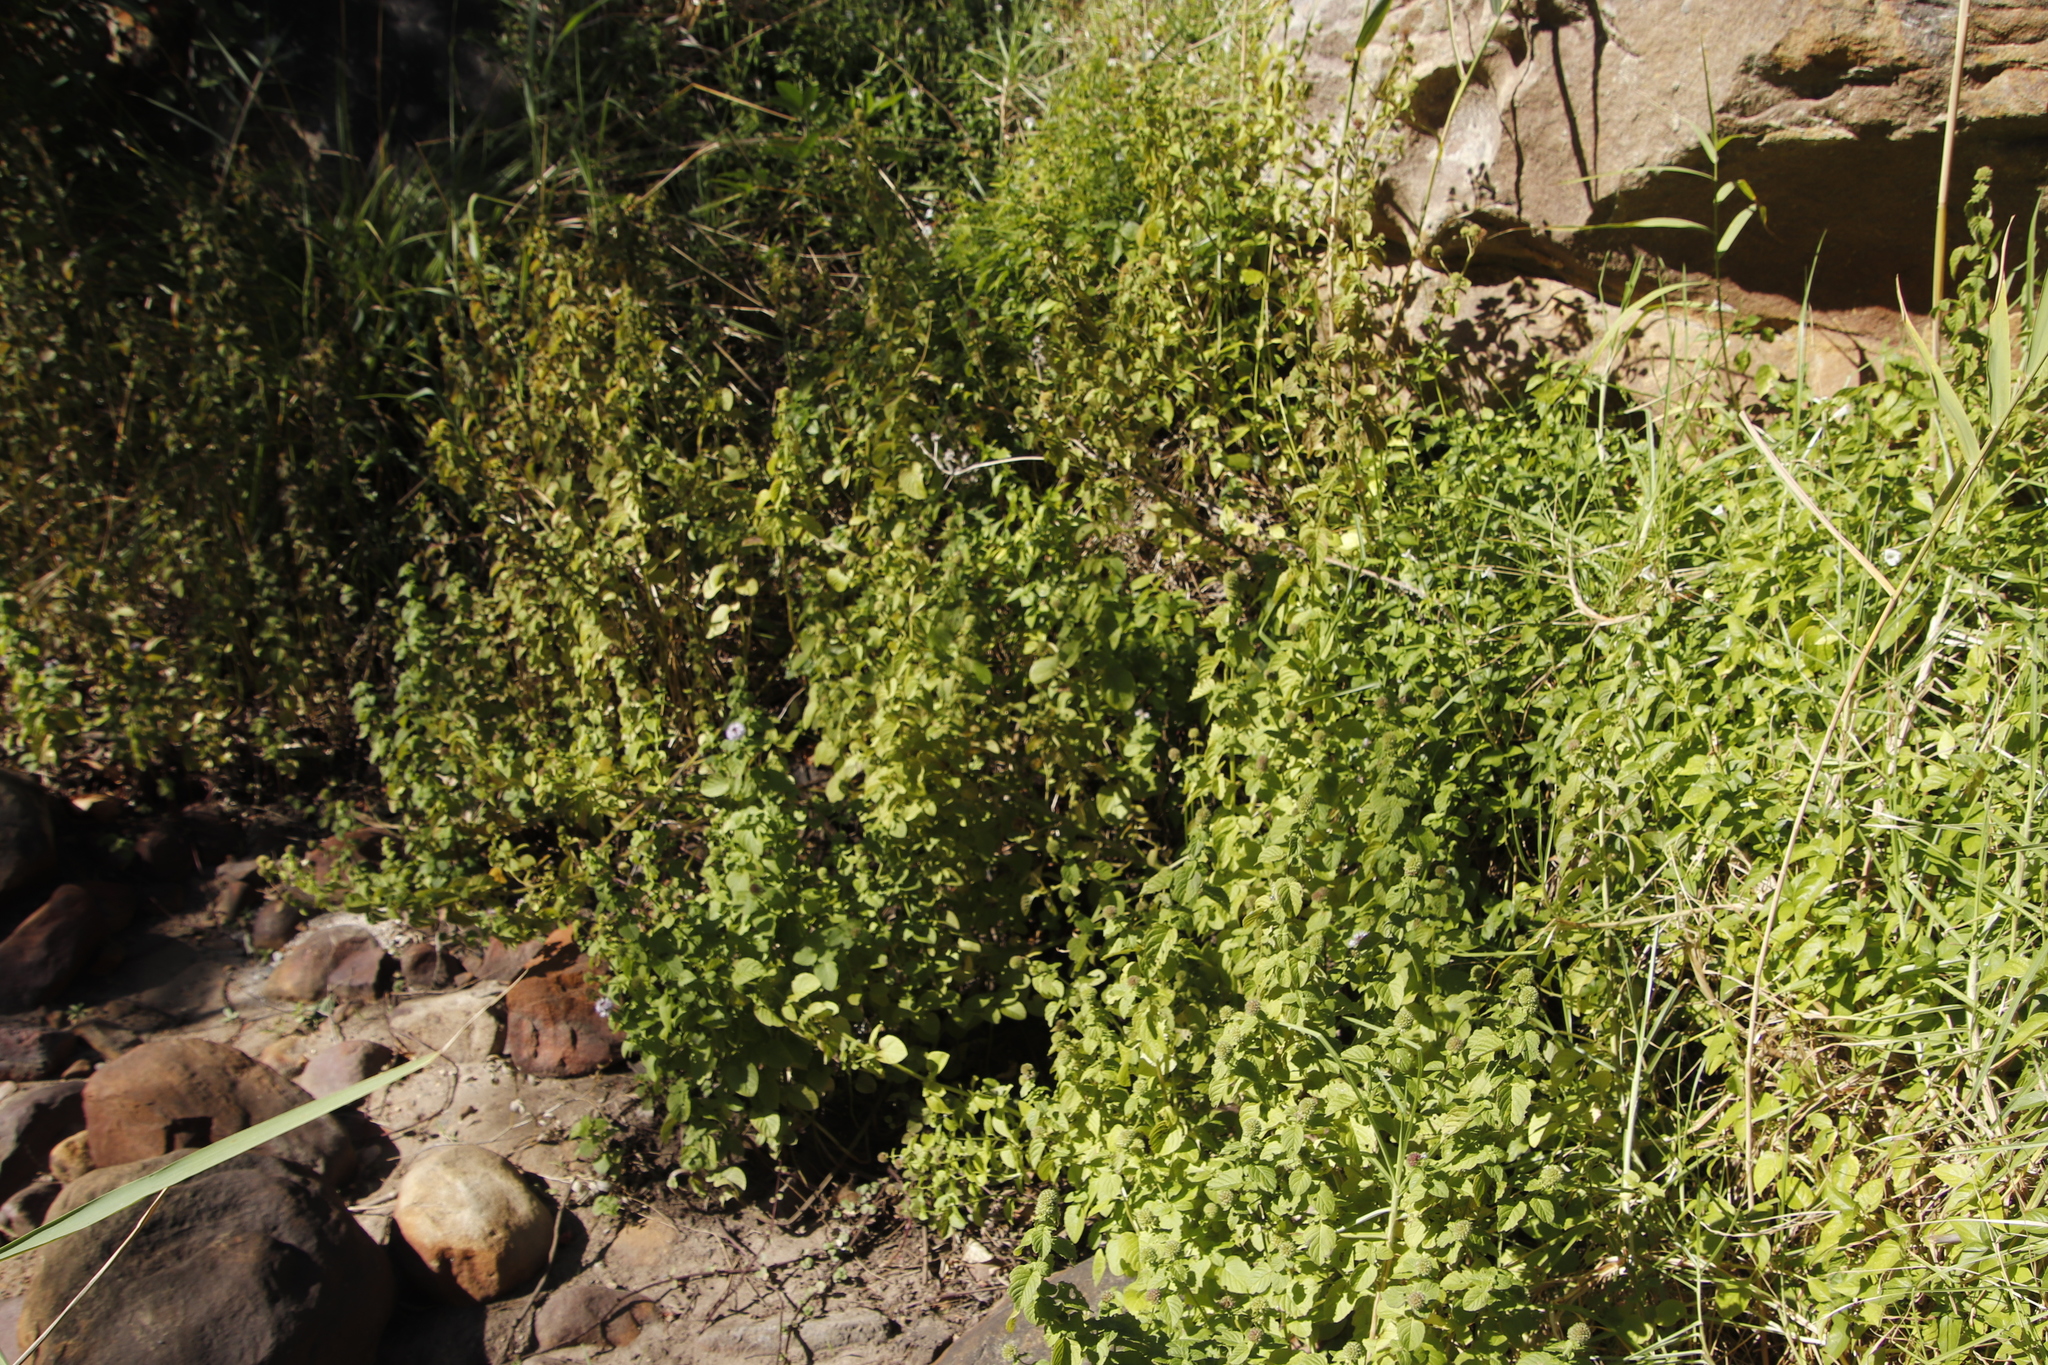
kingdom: Plantae
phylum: Tracheophyta
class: Magnoliopsida
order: Lamiales
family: Lamiaceae
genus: Mentha
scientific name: Mentha aquatica
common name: Water mint
